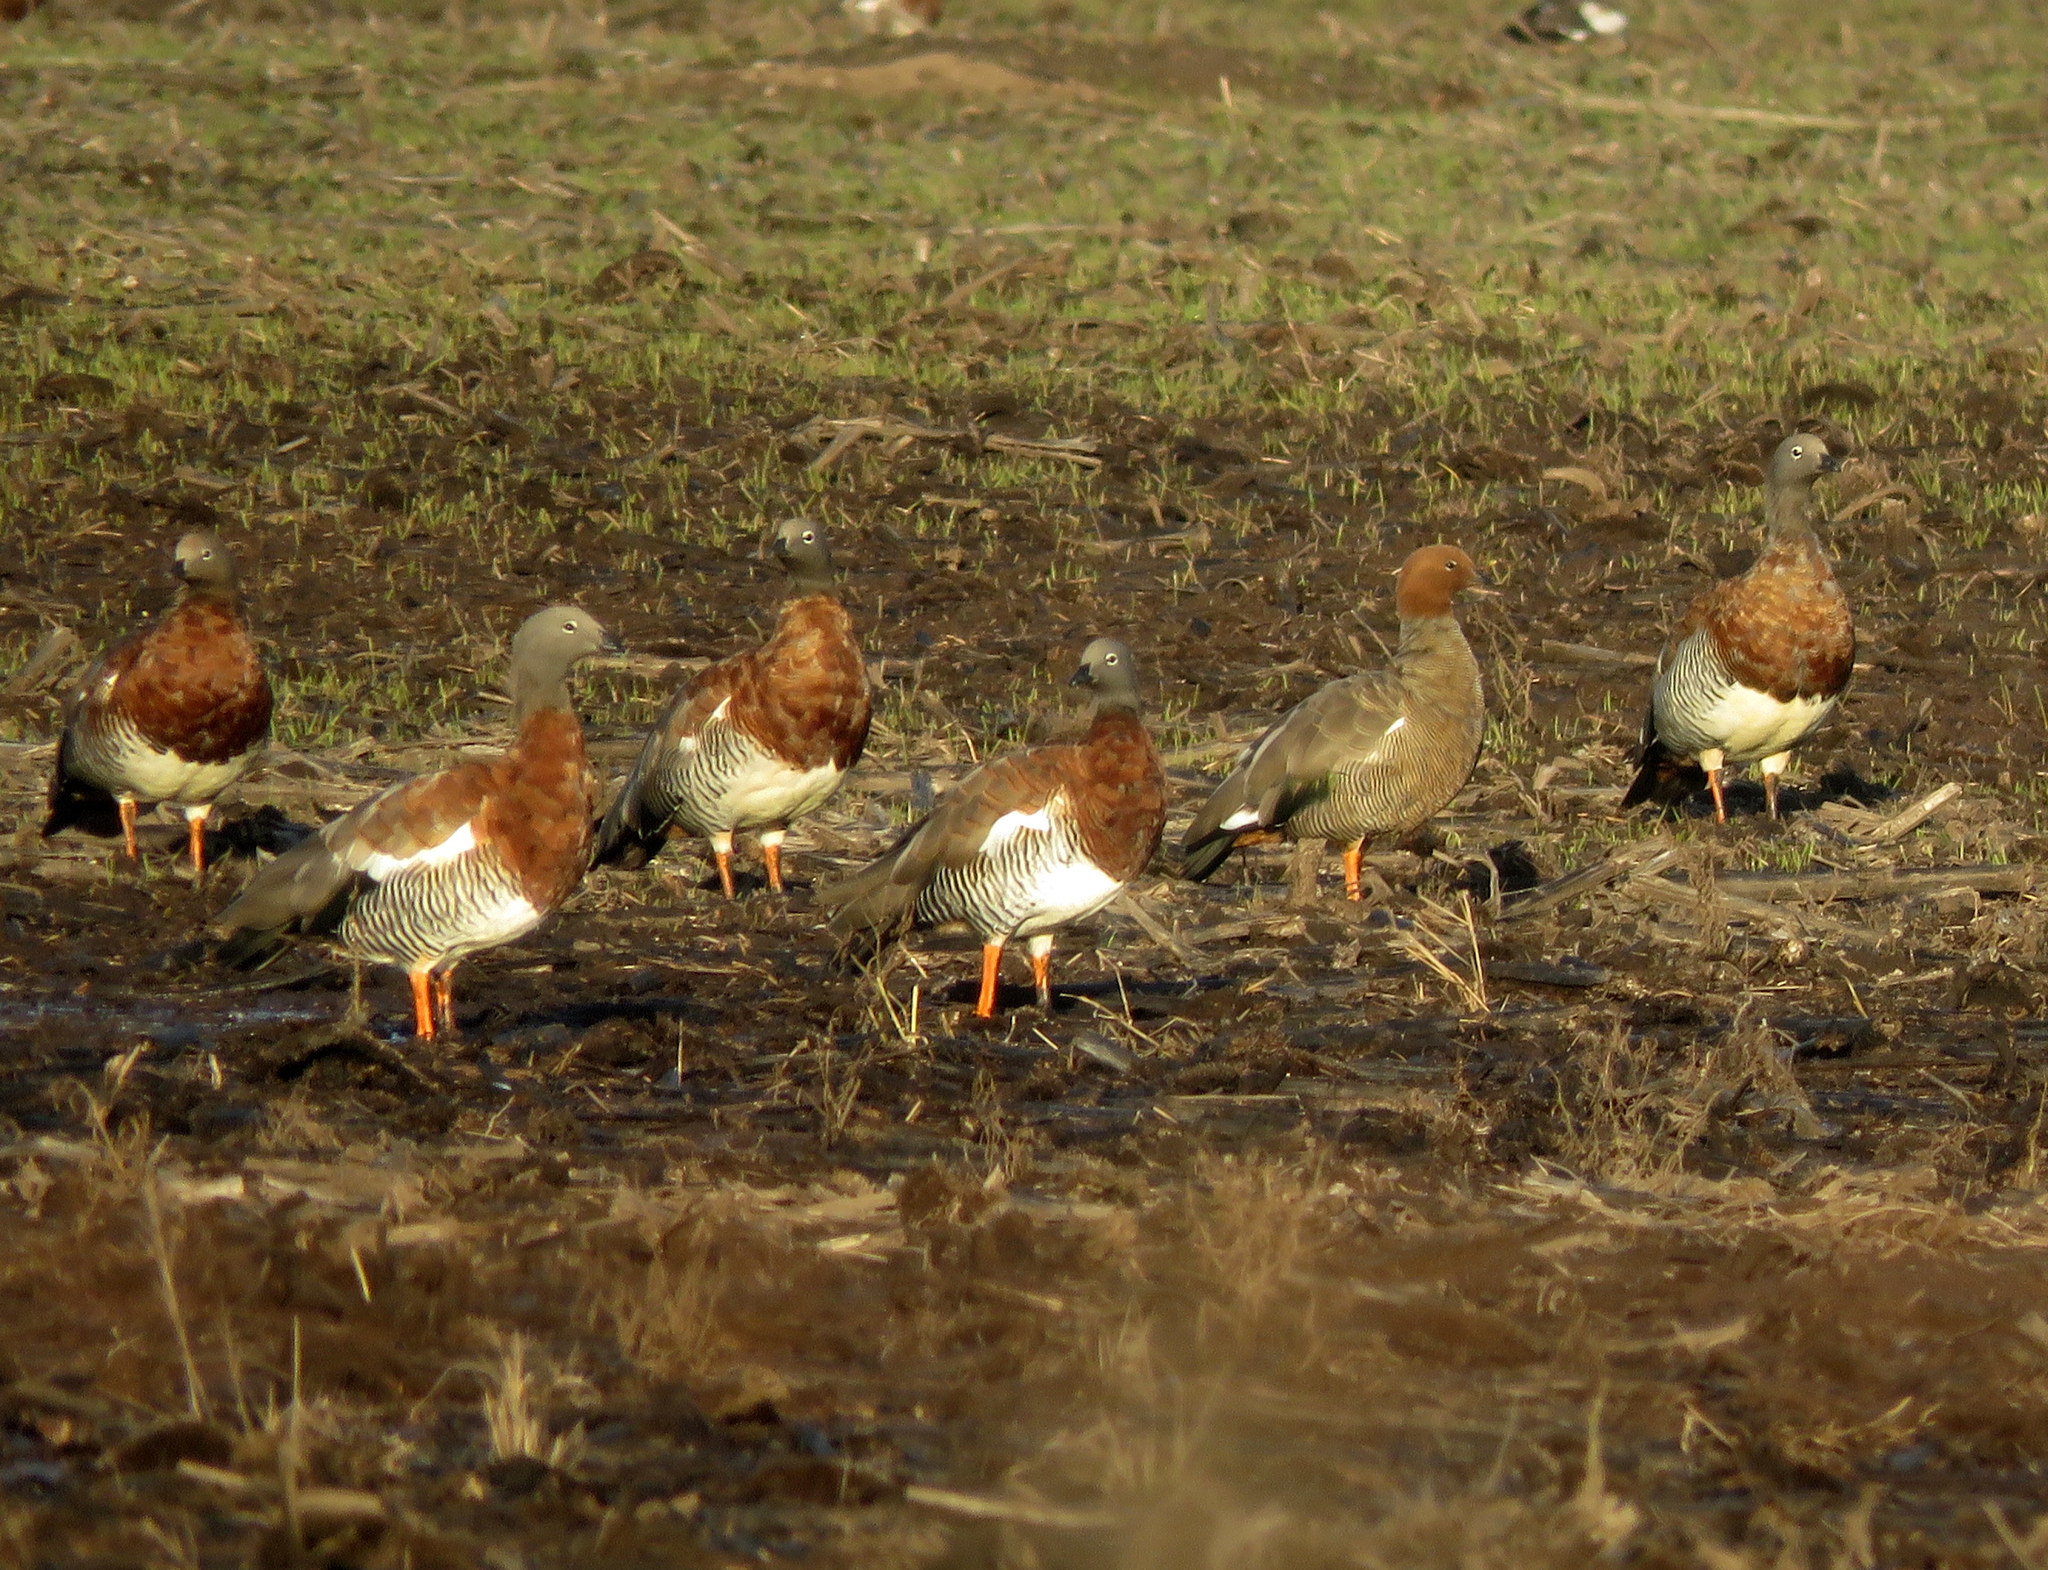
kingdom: Animalia
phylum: Chordata
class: Aves
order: Anseriformes
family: Anatidae
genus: Chloephaga
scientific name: Chloephaga poliocephala
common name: Ashy-headed goose
